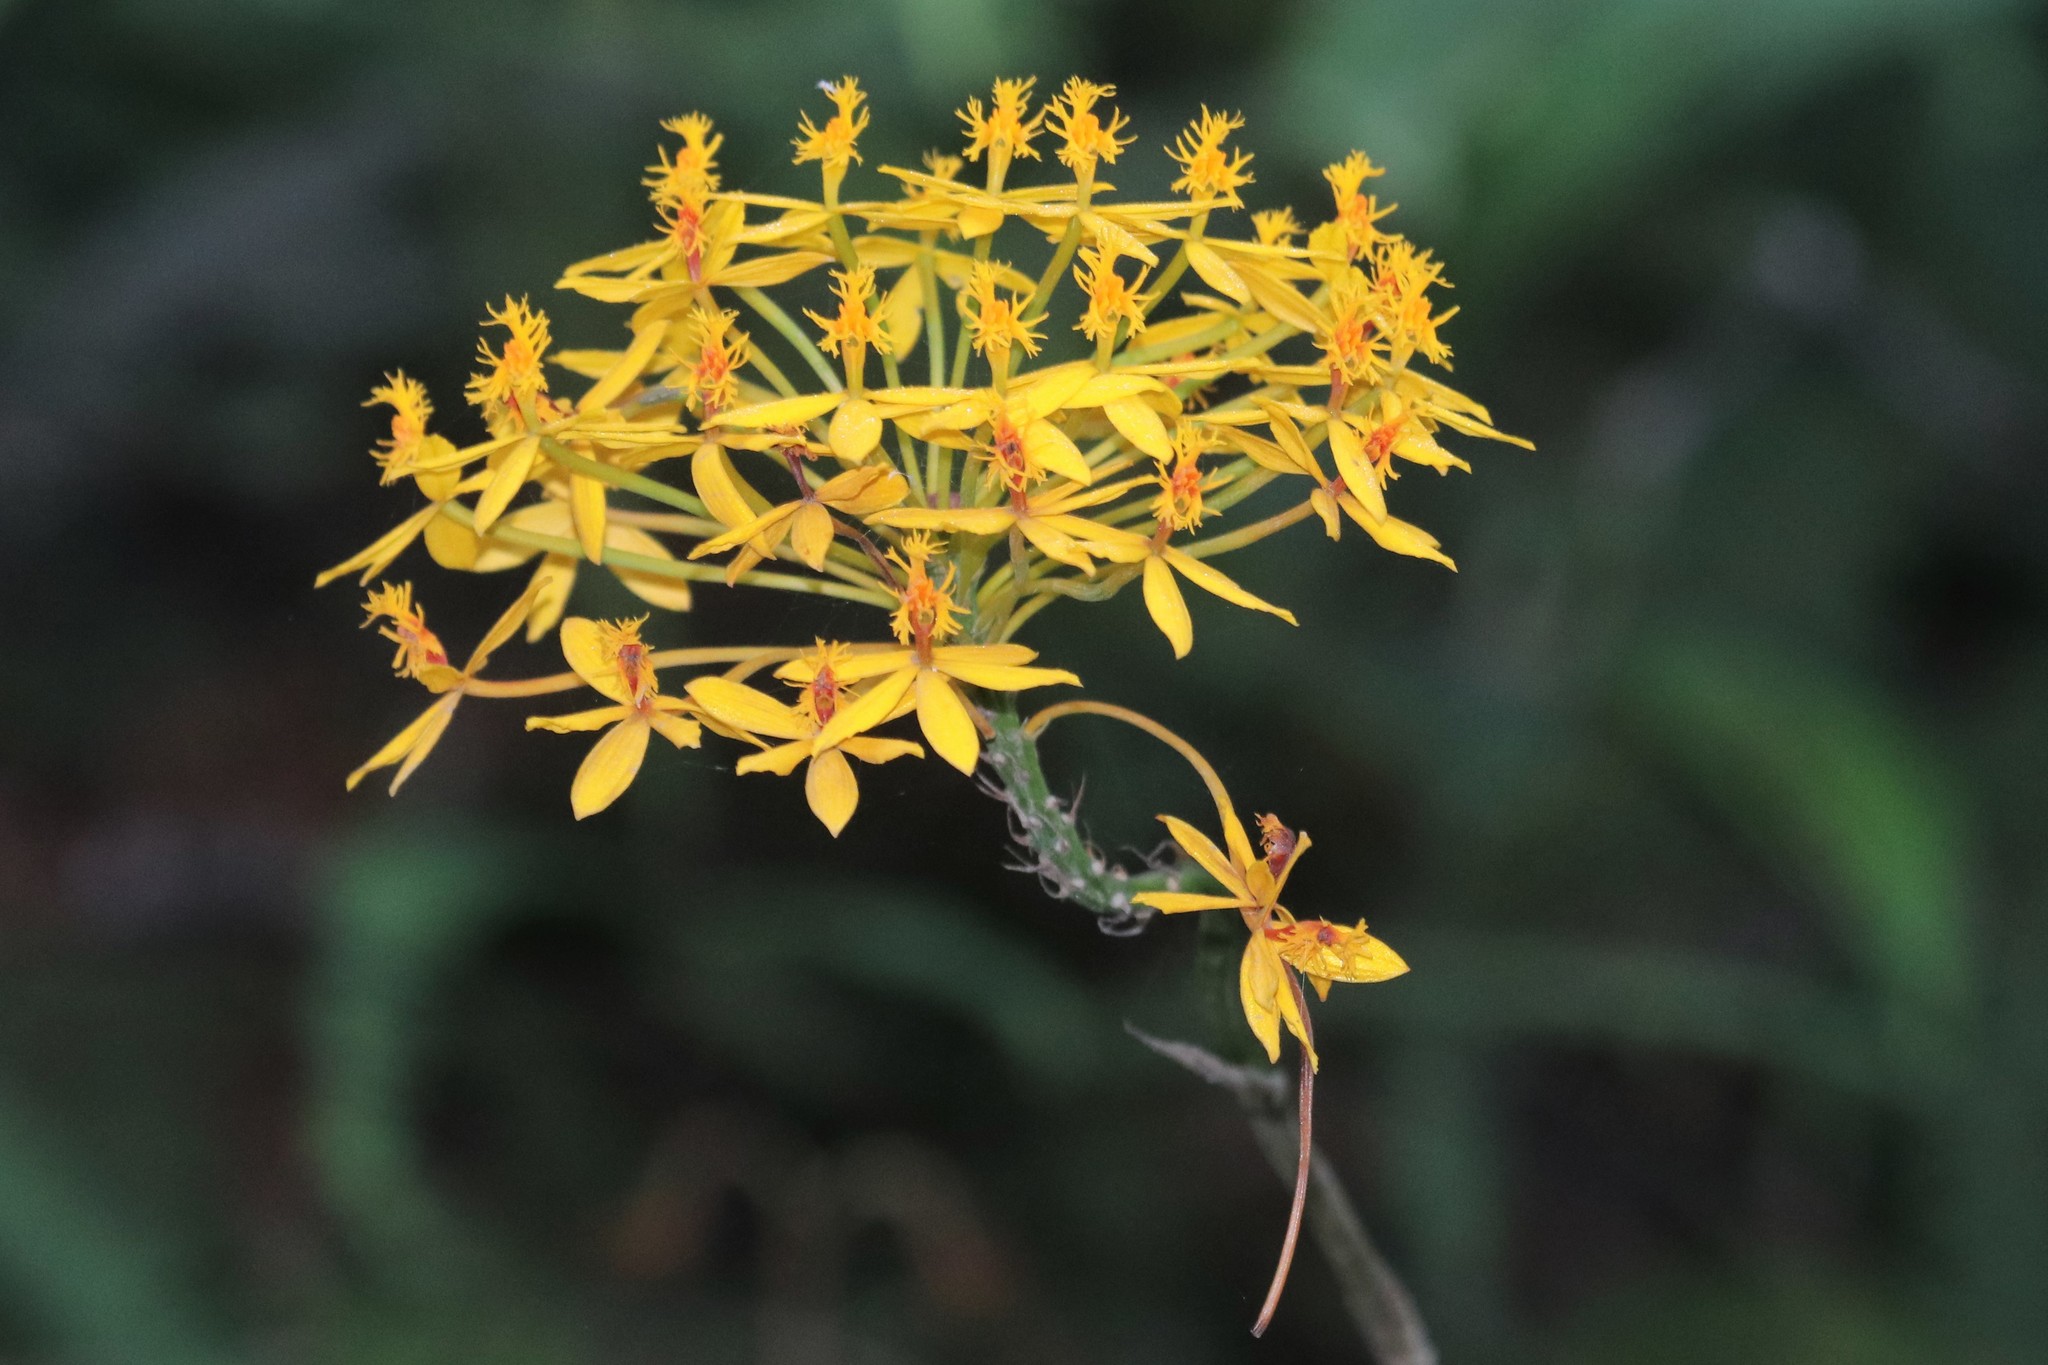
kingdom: Plantae
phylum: Tracheophyta
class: Liliopsida
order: Asparagales
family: Orchidaceae
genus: Epidendrum
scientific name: Epidendrum aura-usecheae
